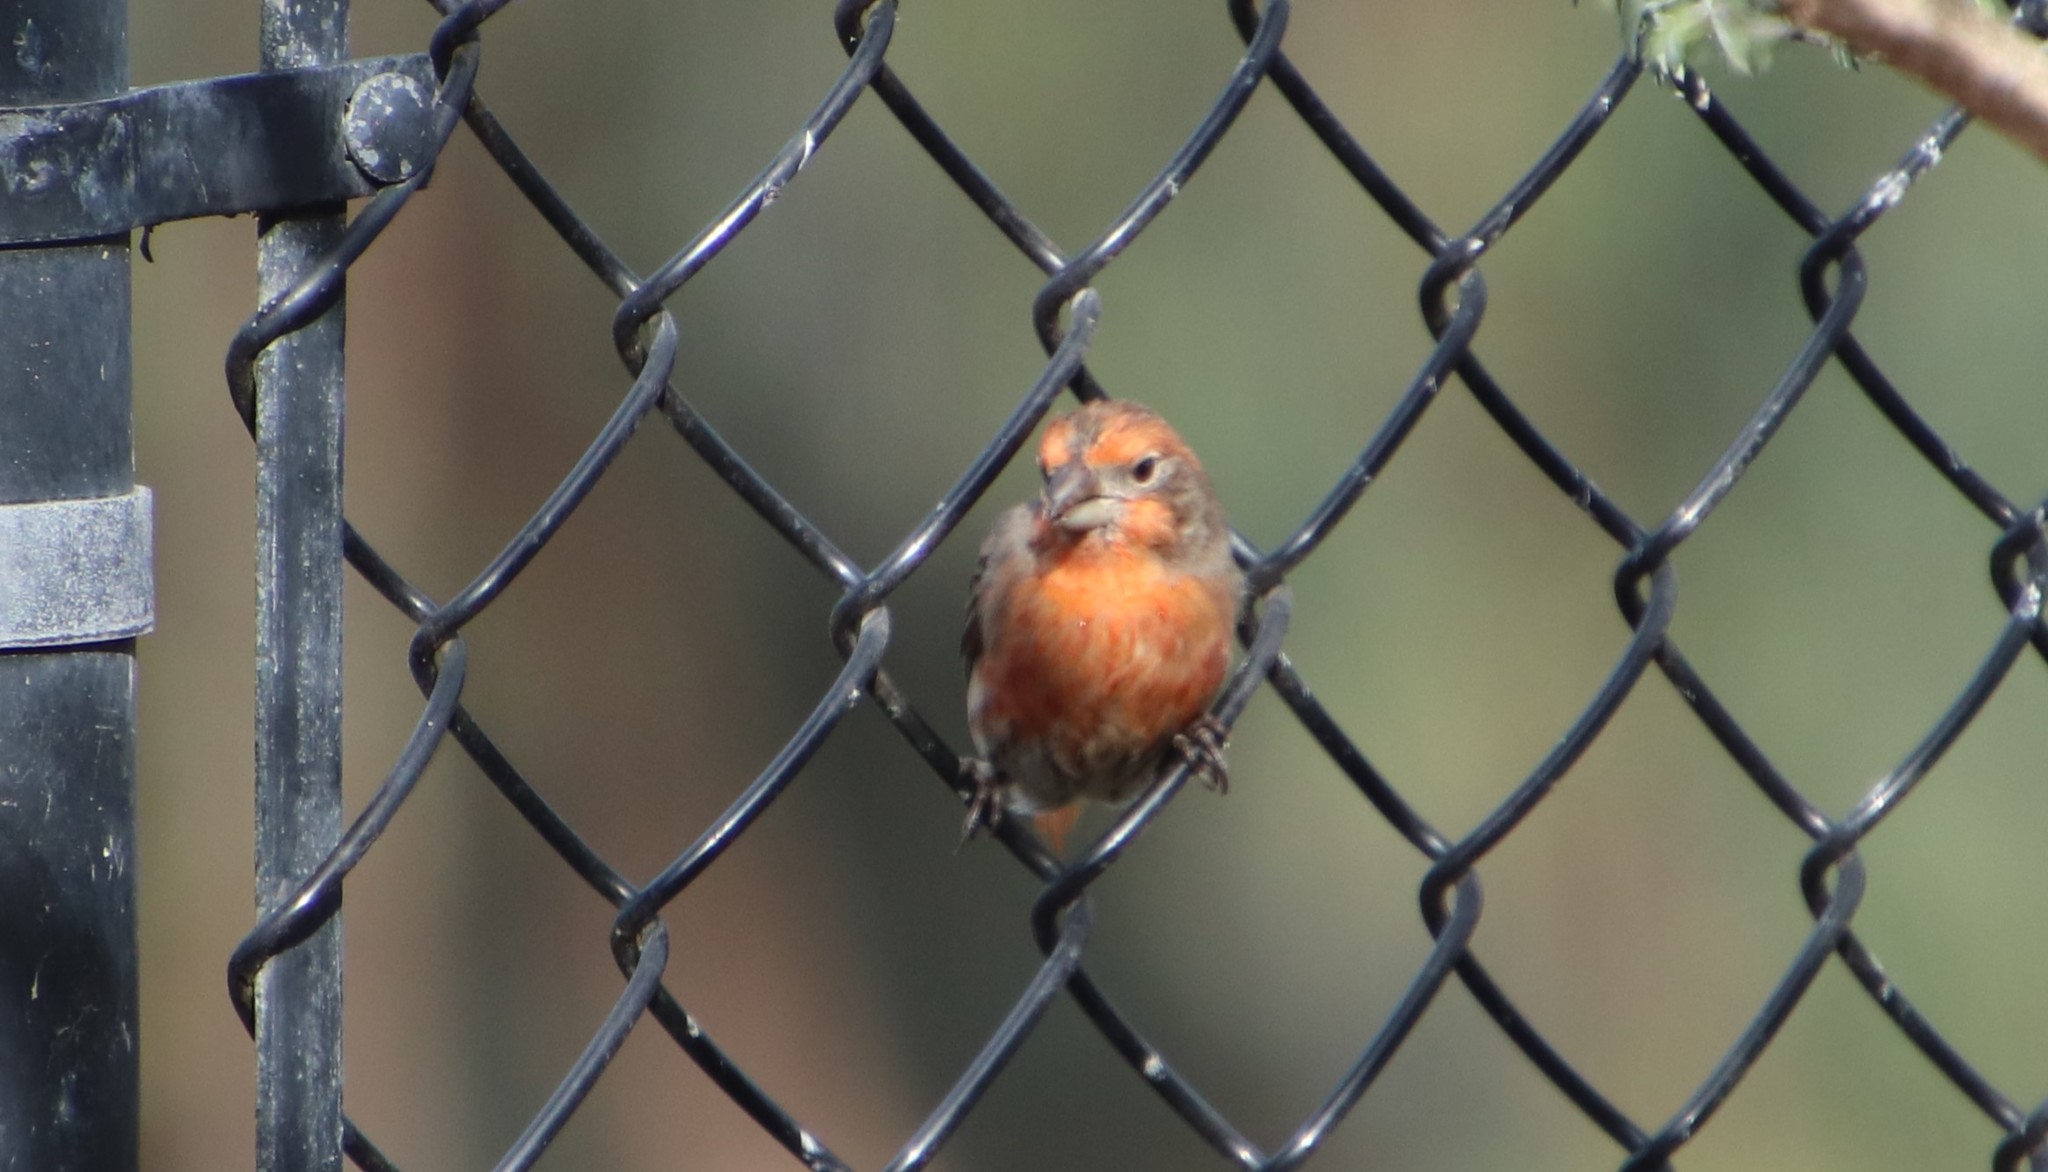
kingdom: Animalia
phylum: Chordata
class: Aves
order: Passeriformes
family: Fringillidae
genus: Haemorhous
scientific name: Haemorhous mexicanus
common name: House finch
